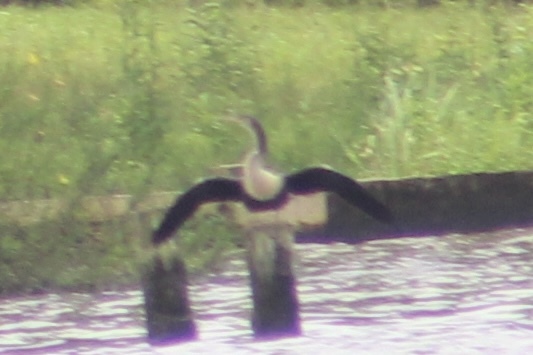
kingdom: Animalia
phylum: Chordata
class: Aves
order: Suliformes
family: Anhingidae
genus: Anhinga
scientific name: Anhinga anhinga
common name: Anhinga
